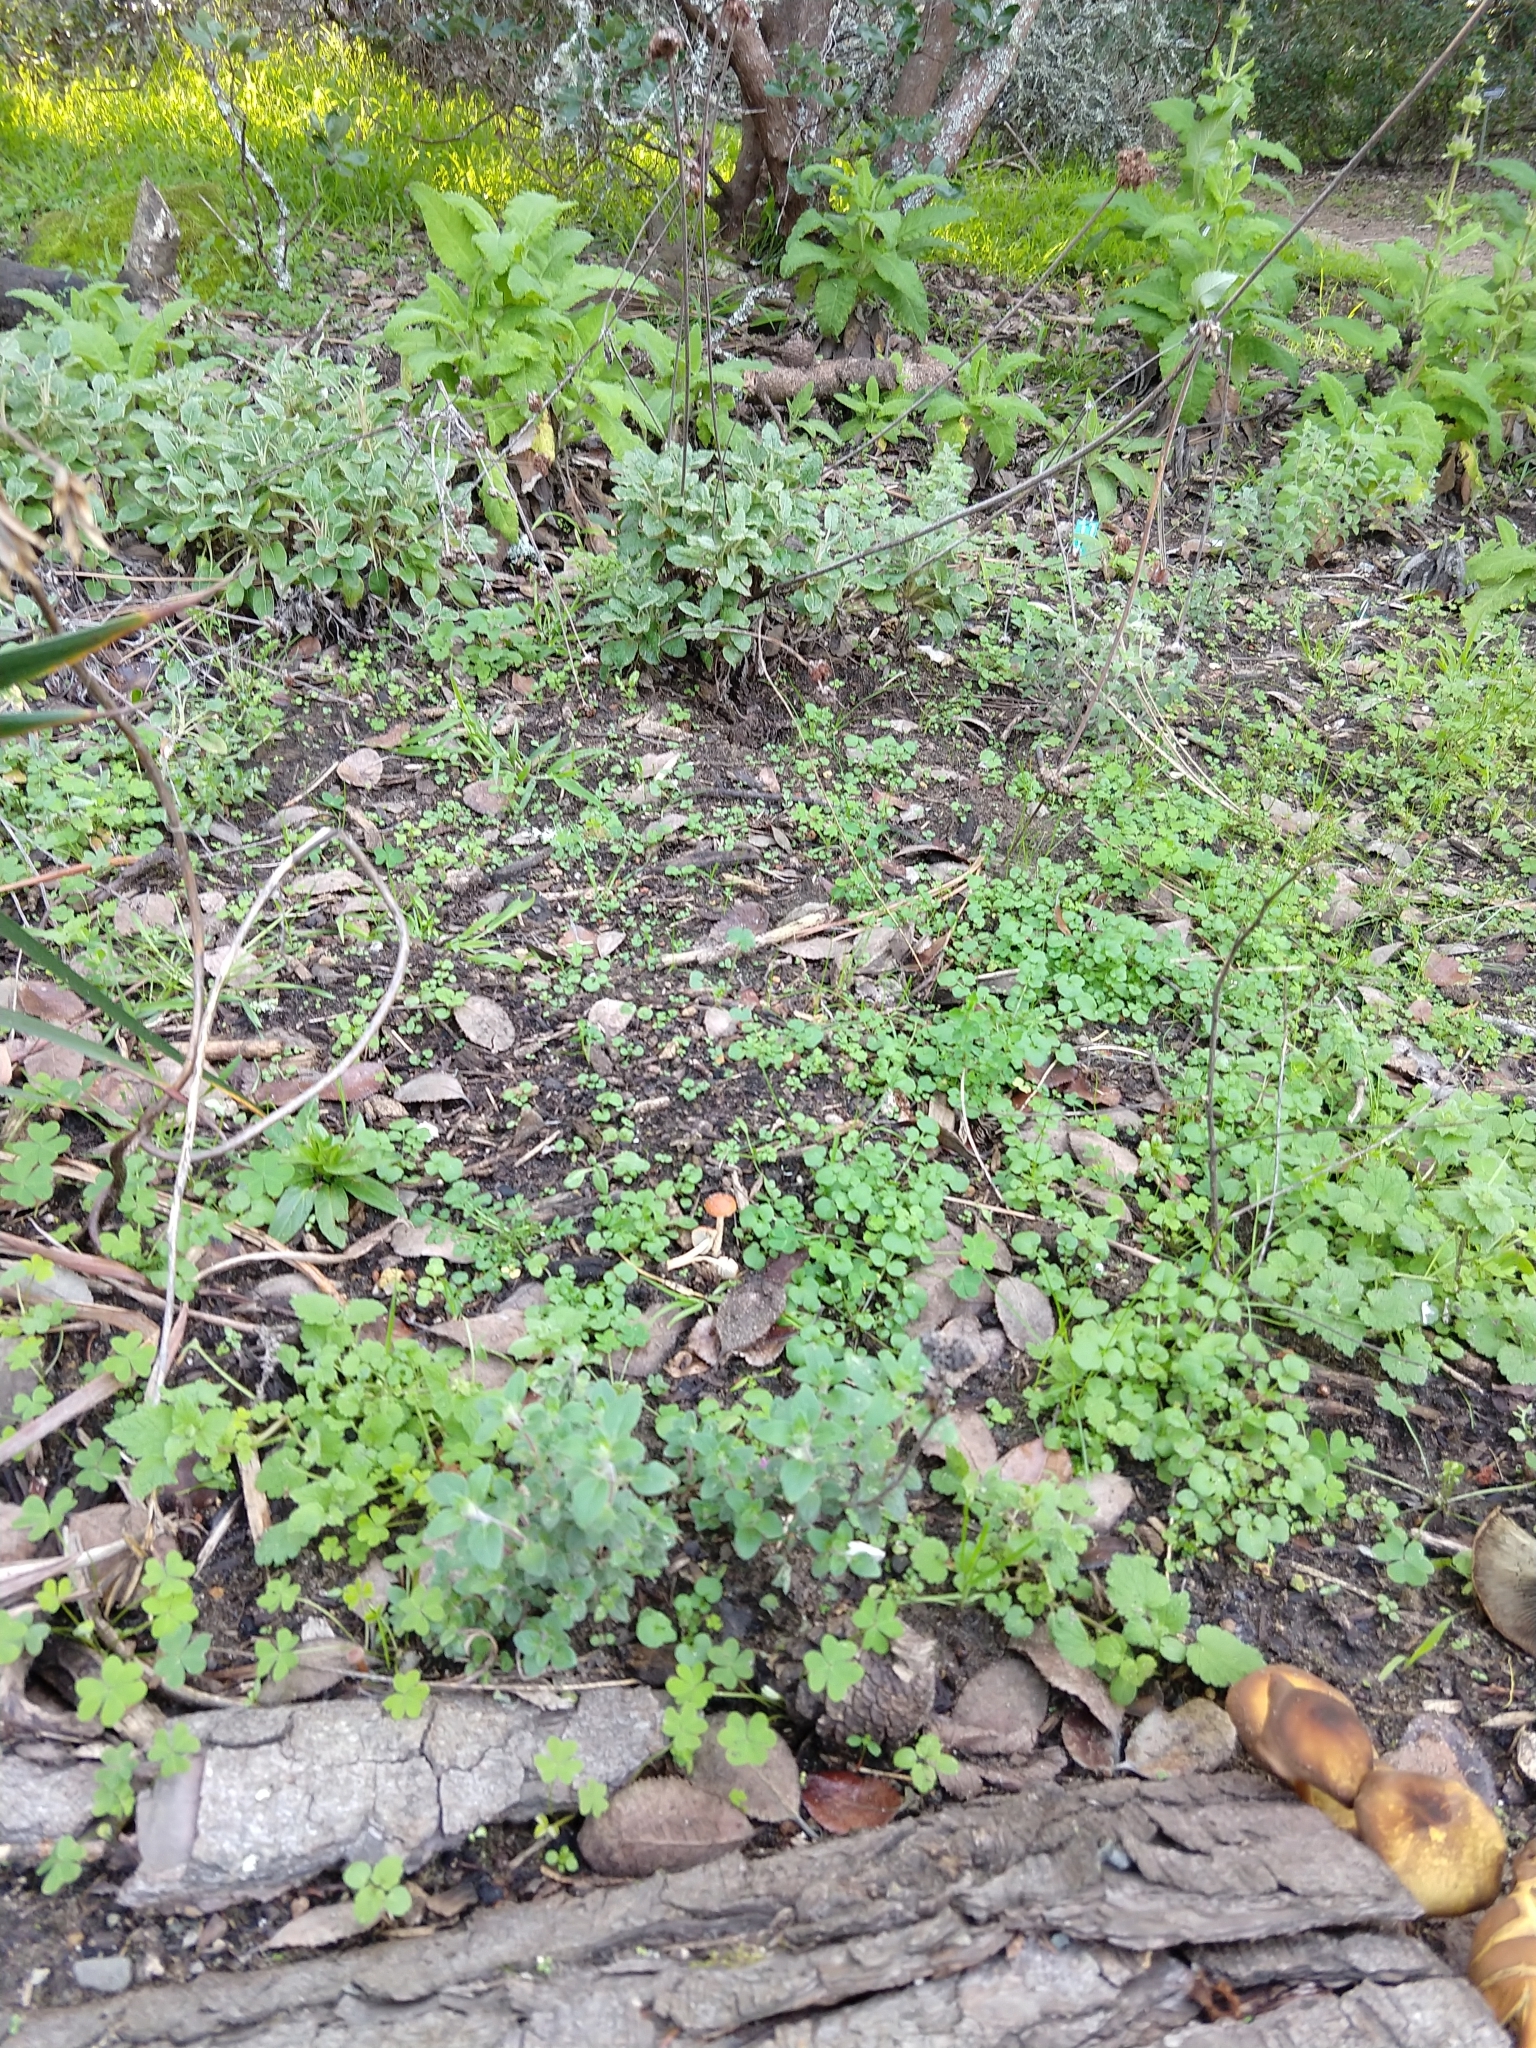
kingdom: Fungi
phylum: Basidiomycota
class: Agaricomycetes
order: Agaricales
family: Strophariaceae
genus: Leratiomyces
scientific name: Leratiomyces ceres
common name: Redlead roundhead
